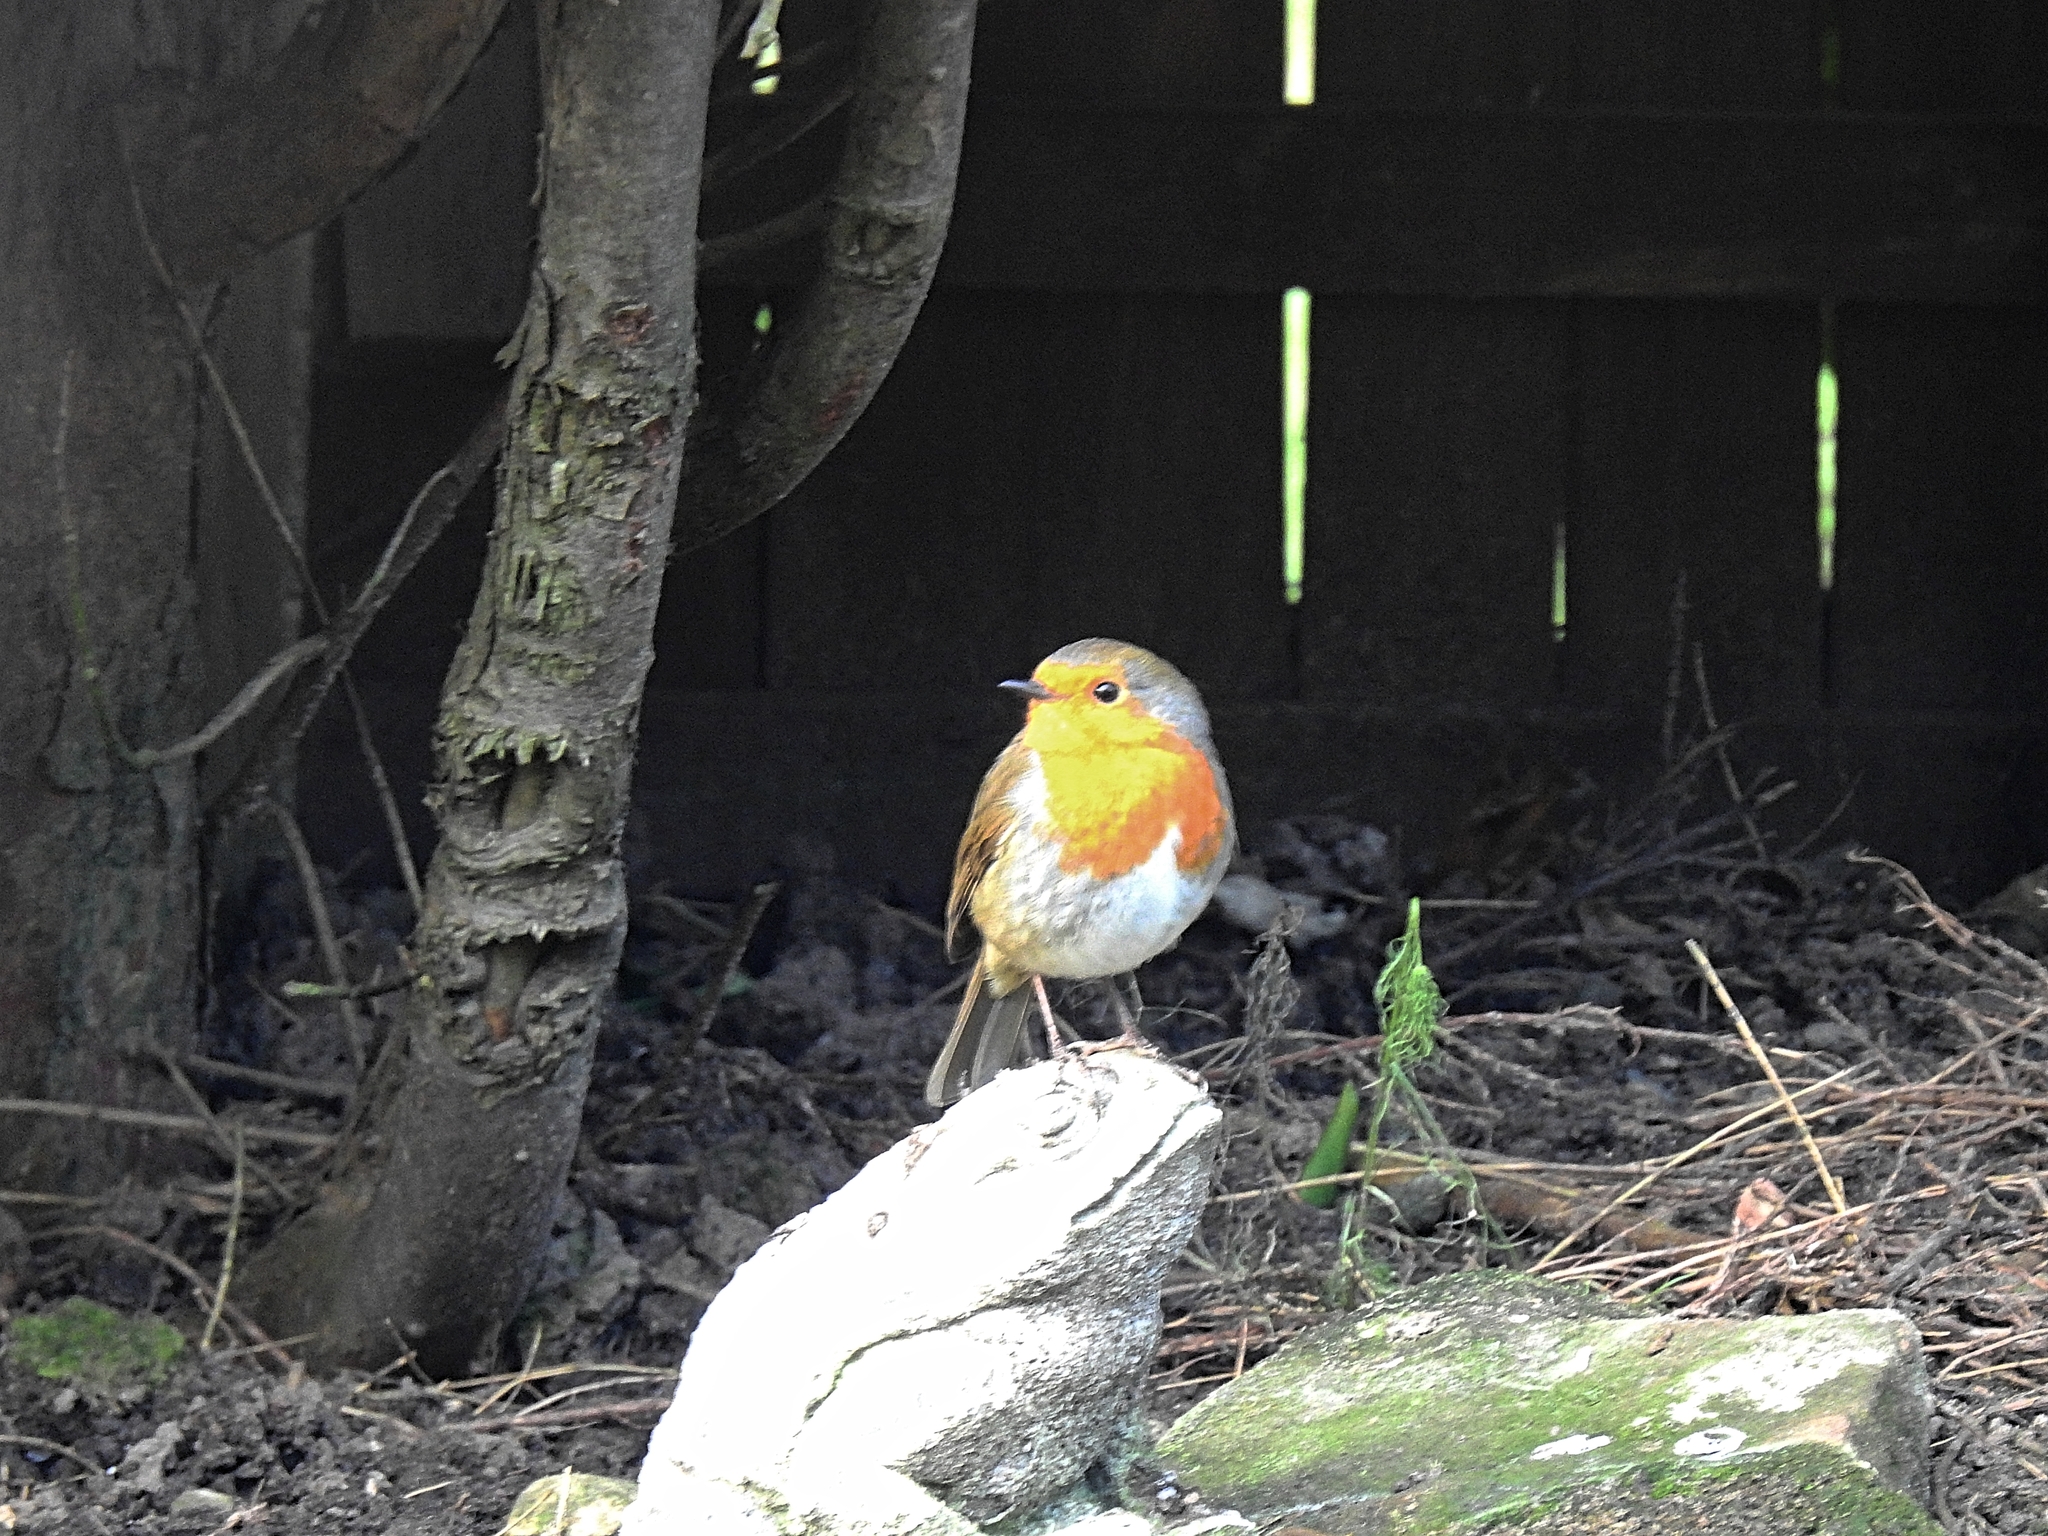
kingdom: Animalia
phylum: Chordata
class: Aves
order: Passeriformes
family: Muscicapidae
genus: Erithacus
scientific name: Erithacus rubecula
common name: European robin
